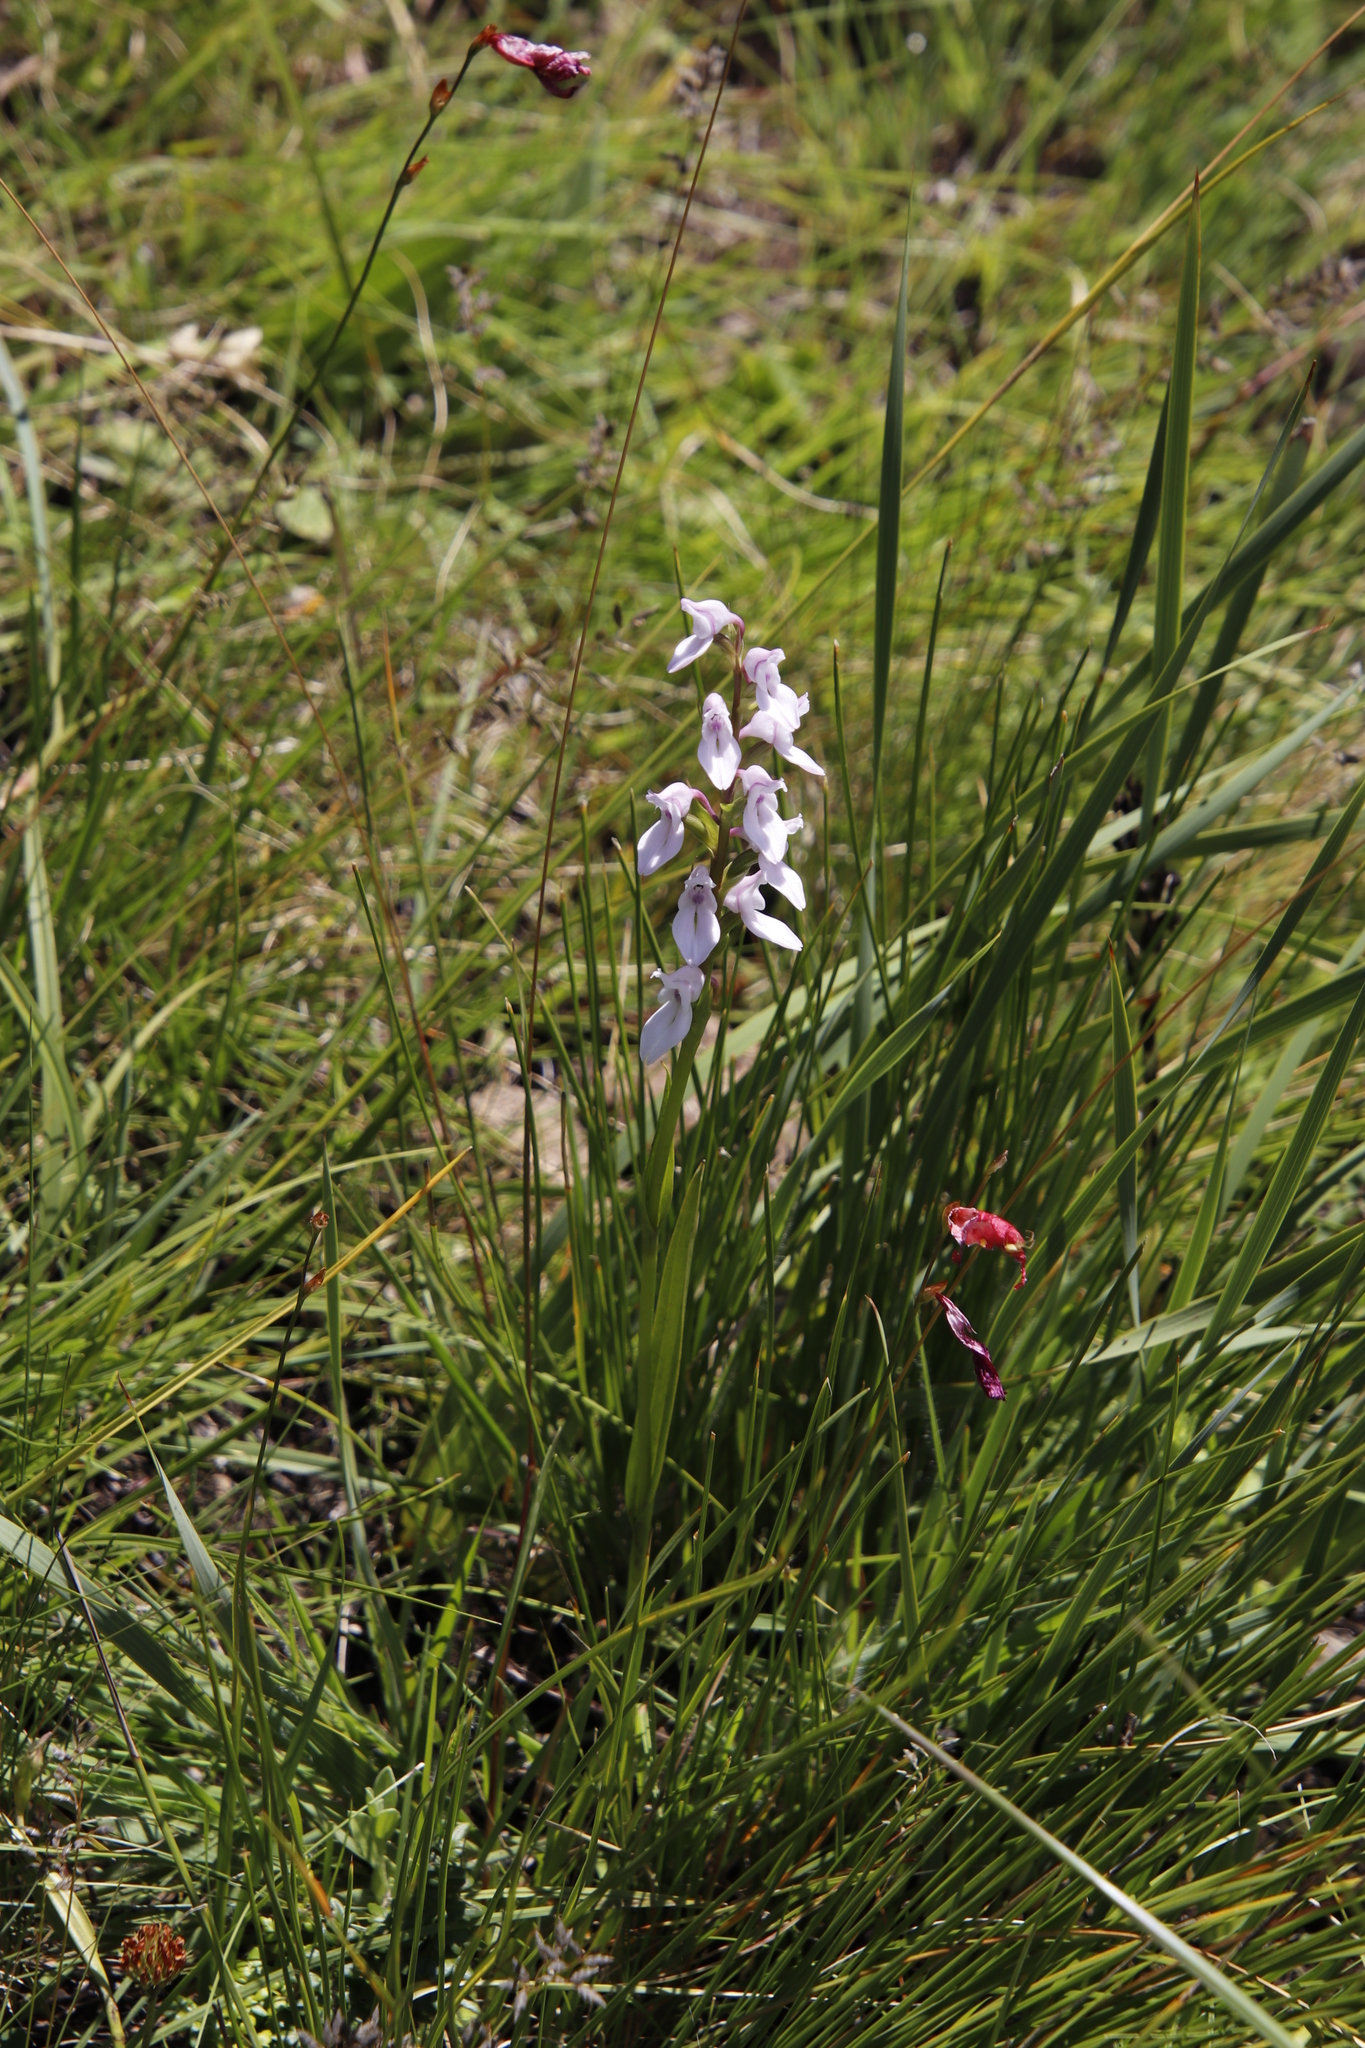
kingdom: Plantae
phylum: Tracheophyta
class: Liliopsida
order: Asparagales
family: Orchidaceae
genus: Brownleea
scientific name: Brownleea recurvata
